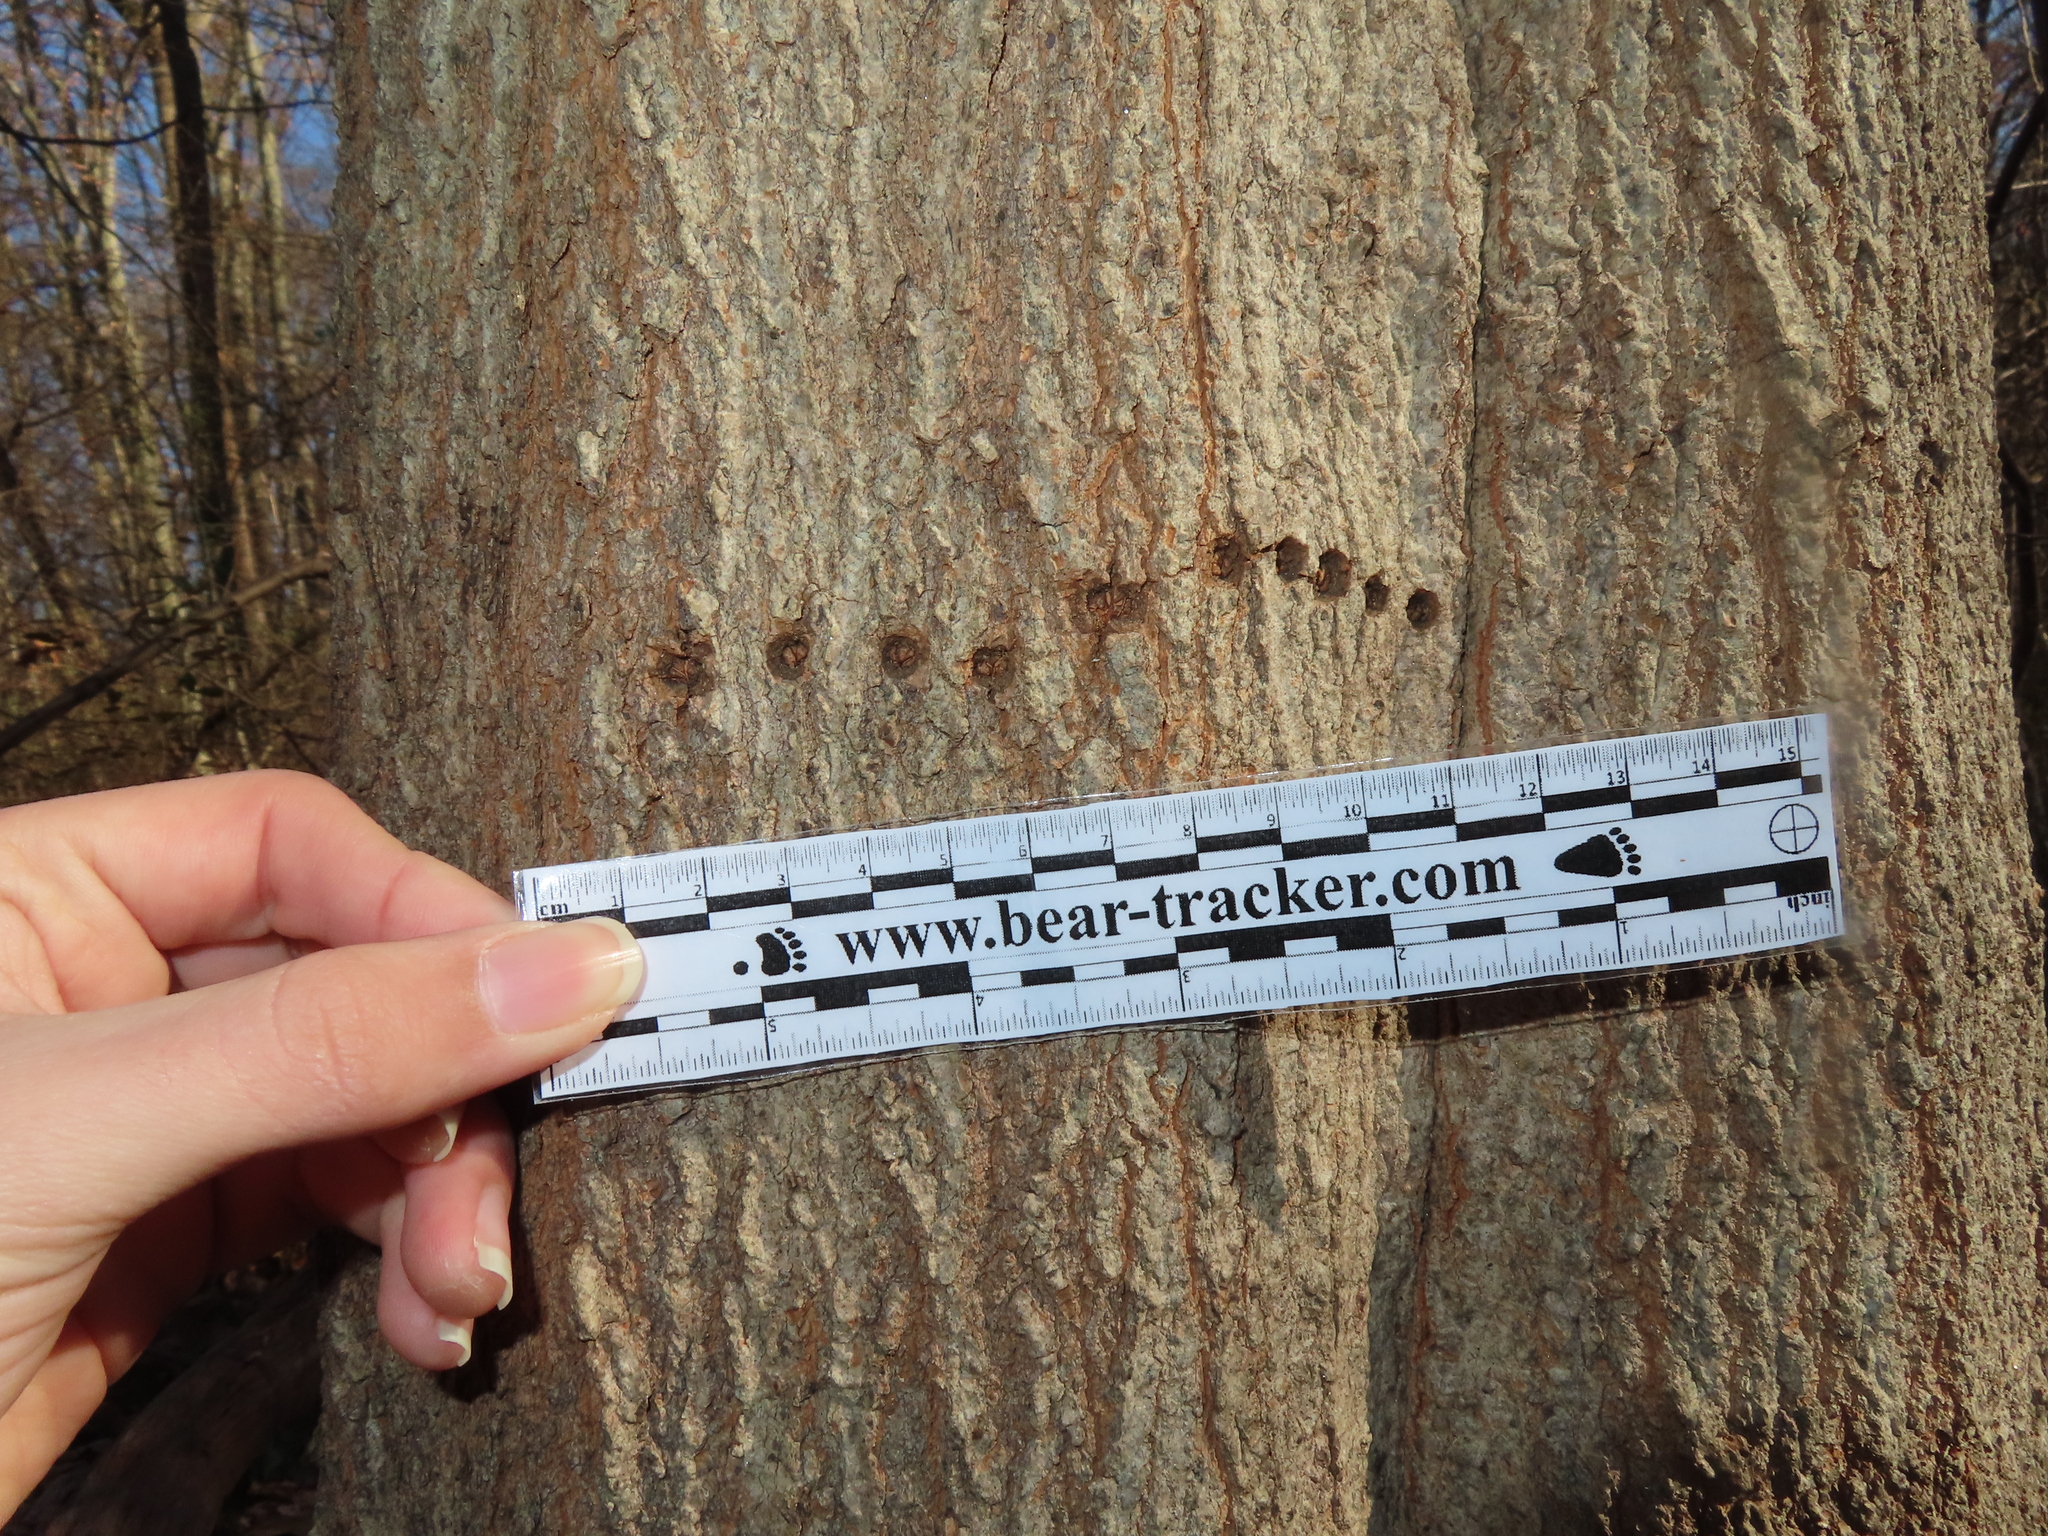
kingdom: Animalia
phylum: Chordata
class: Aves
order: Piciformes
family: Picidae
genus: Sphyrapicus
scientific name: Sphyrapicus varius
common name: Yellow-bellied sapsucker
